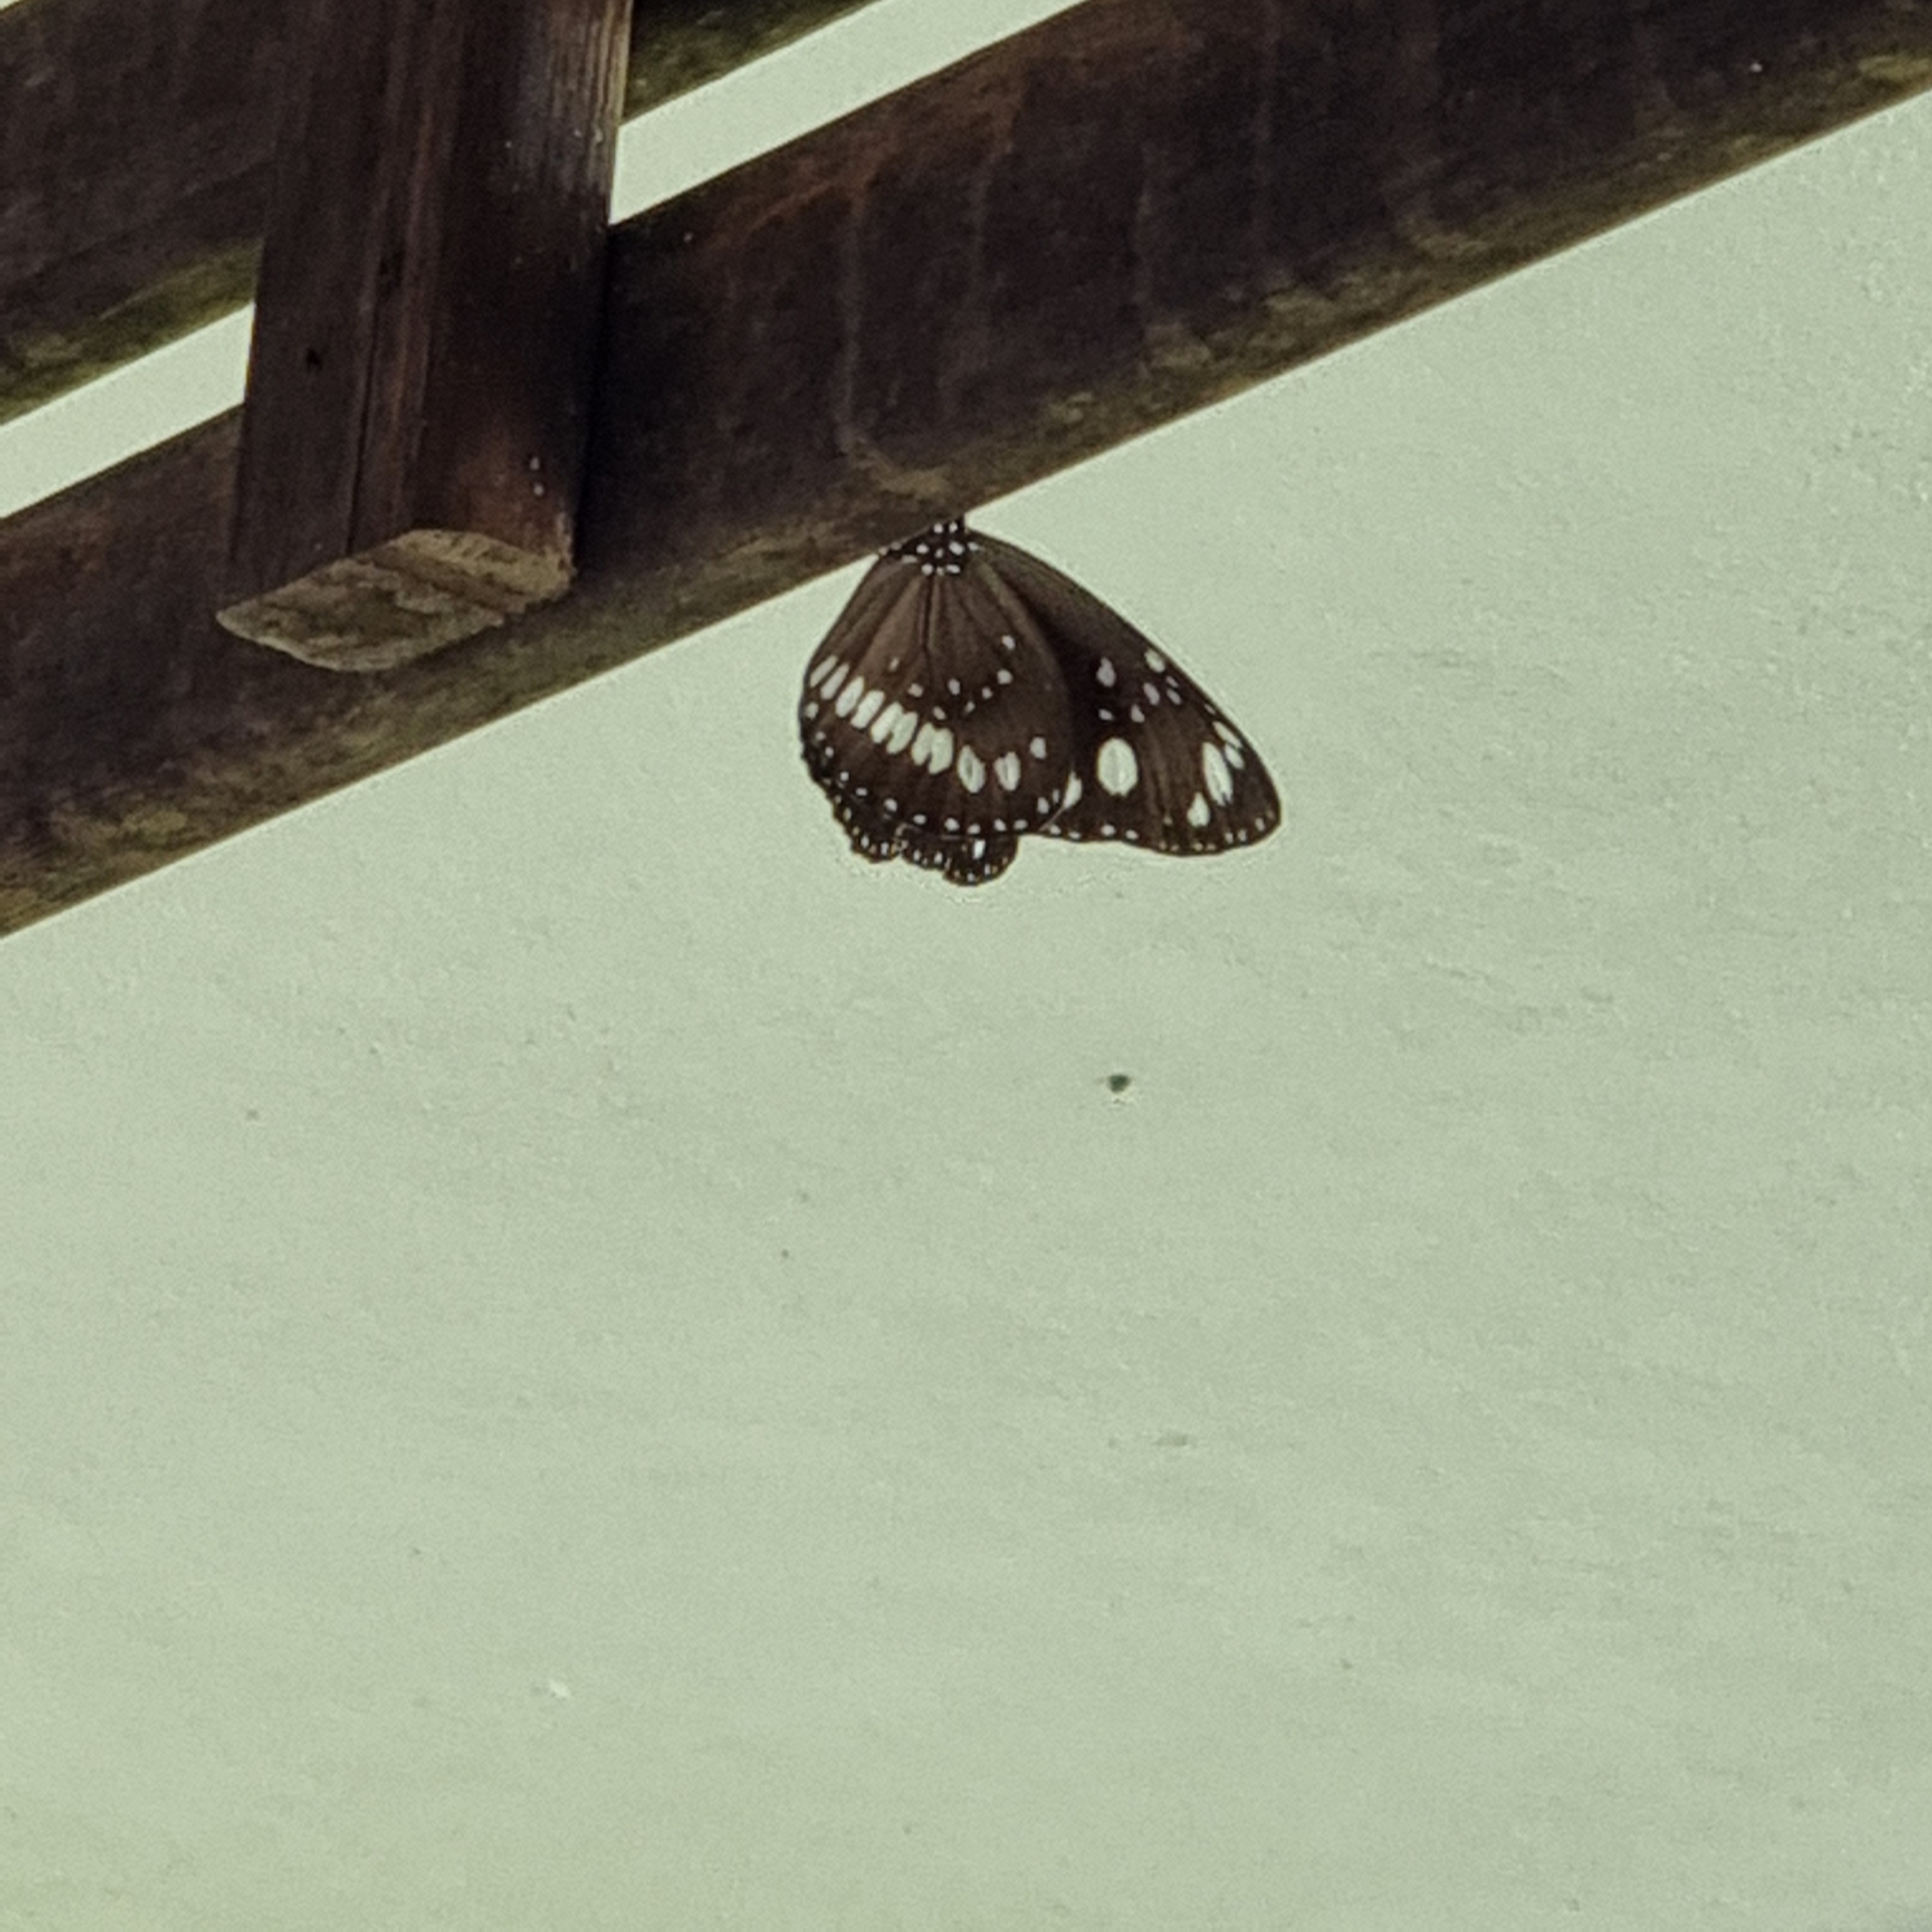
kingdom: Animalia
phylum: Arthropoda
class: Insecta
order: Lepidoptera
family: Nymphalidae
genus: Euploea
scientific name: Euploea core
